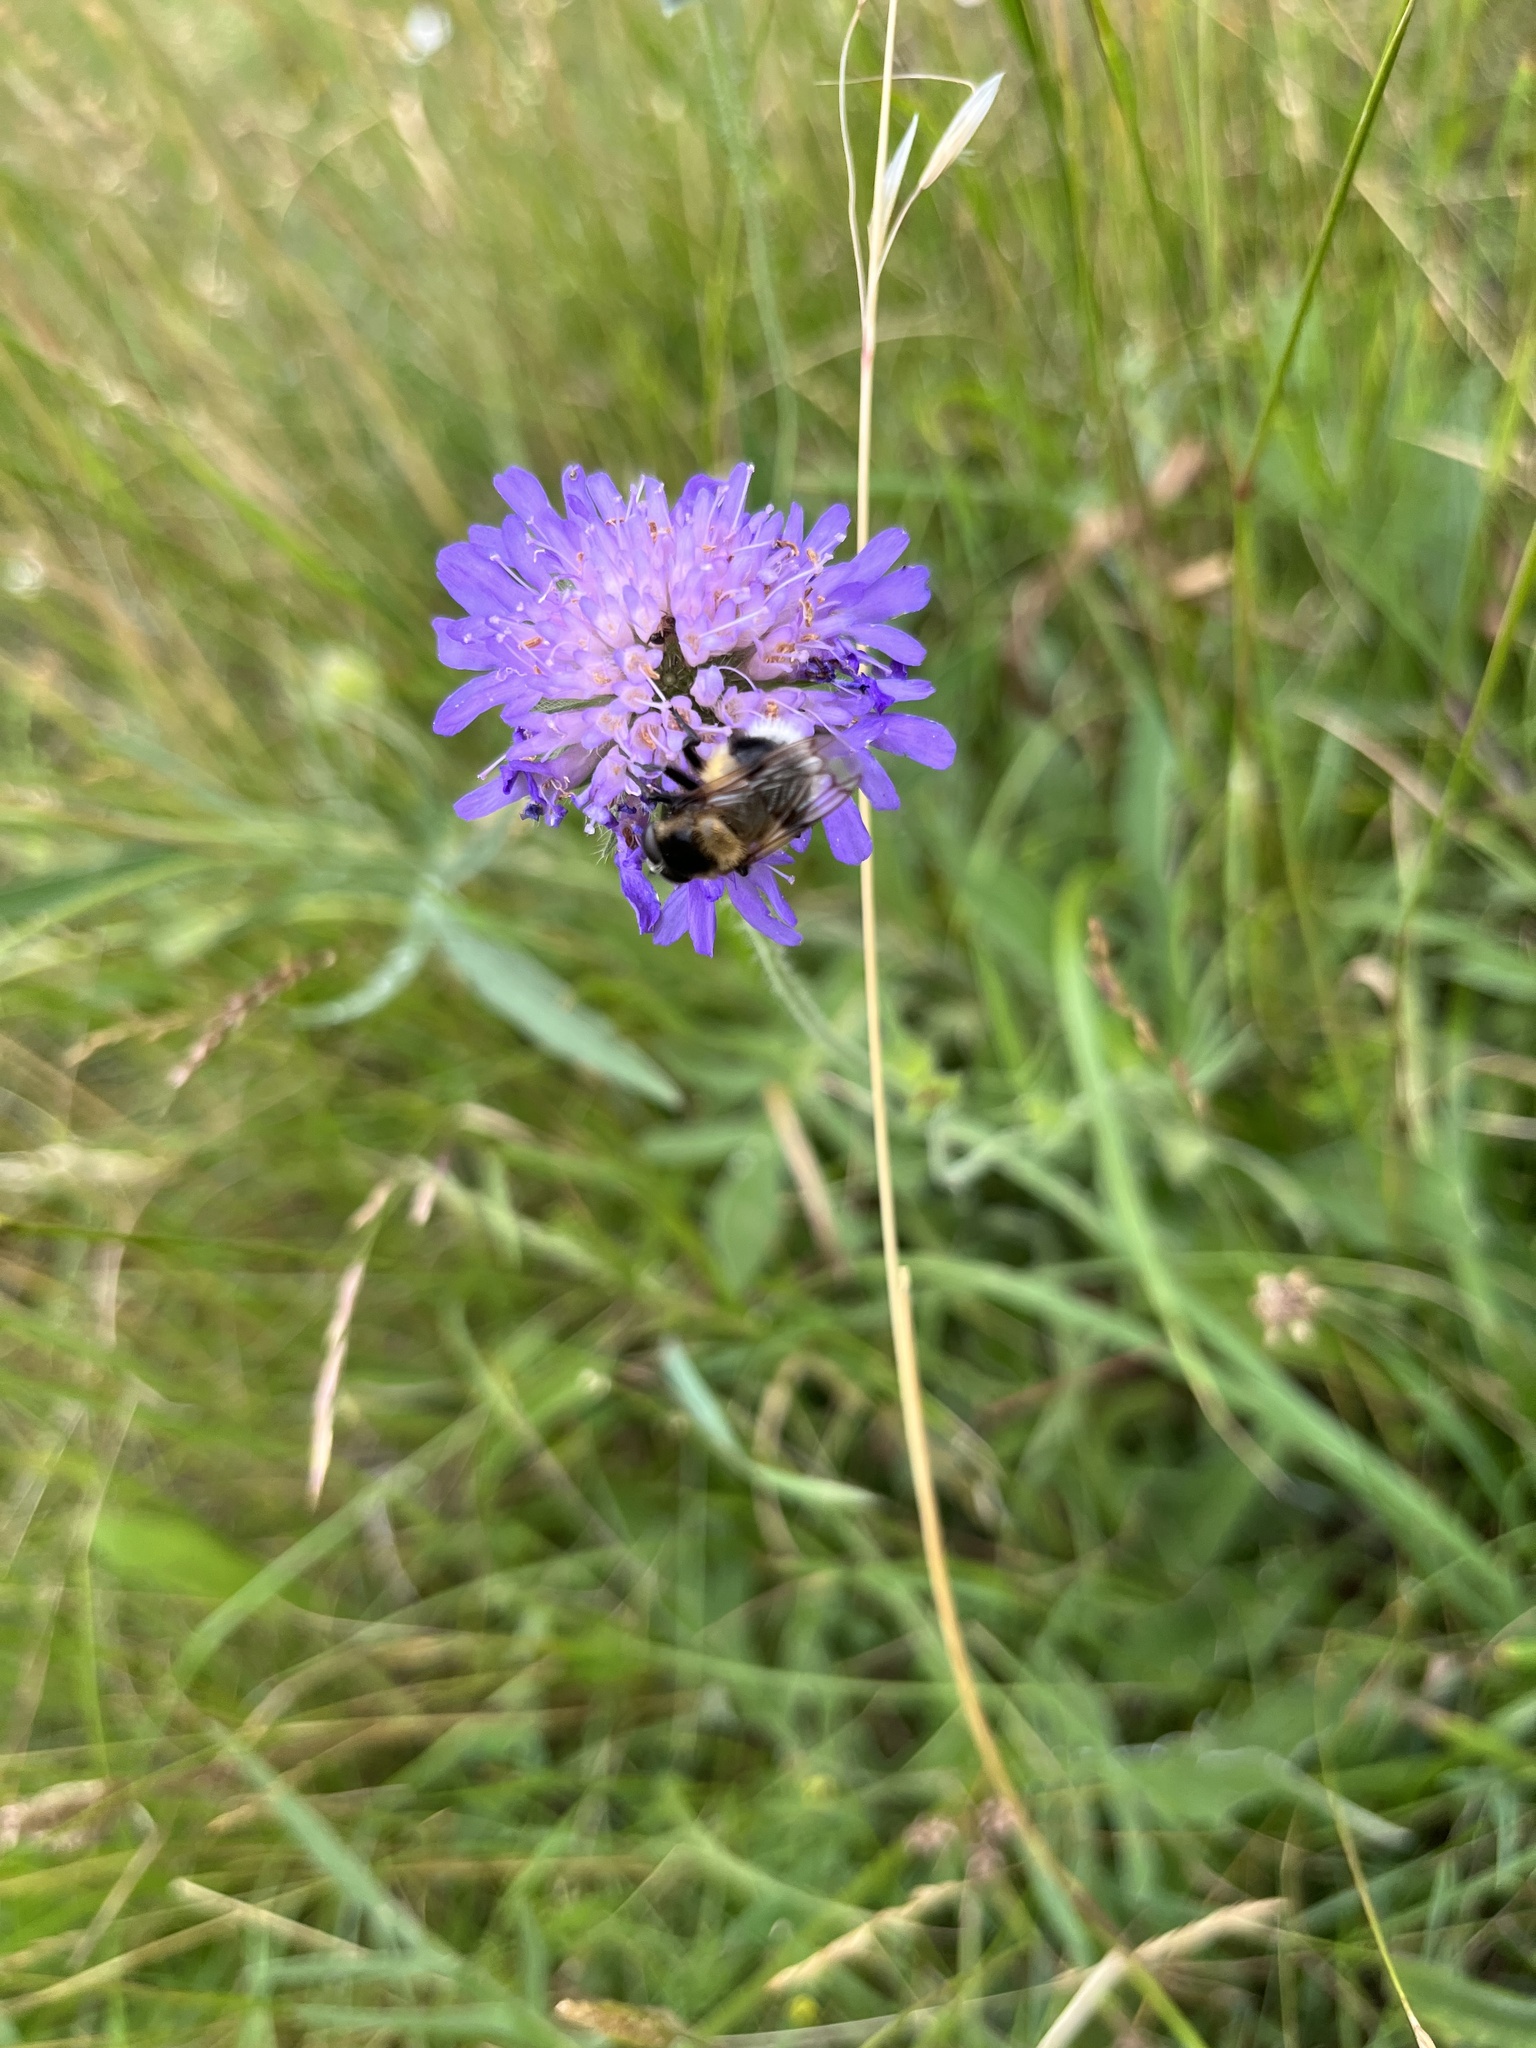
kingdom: Plantae
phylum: Tracheophyta
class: Magnoliopsida
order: Dipsacales
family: Caprifoliaceae
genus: Knautia
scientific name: Knautia arvensis
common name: Field scabiosa
